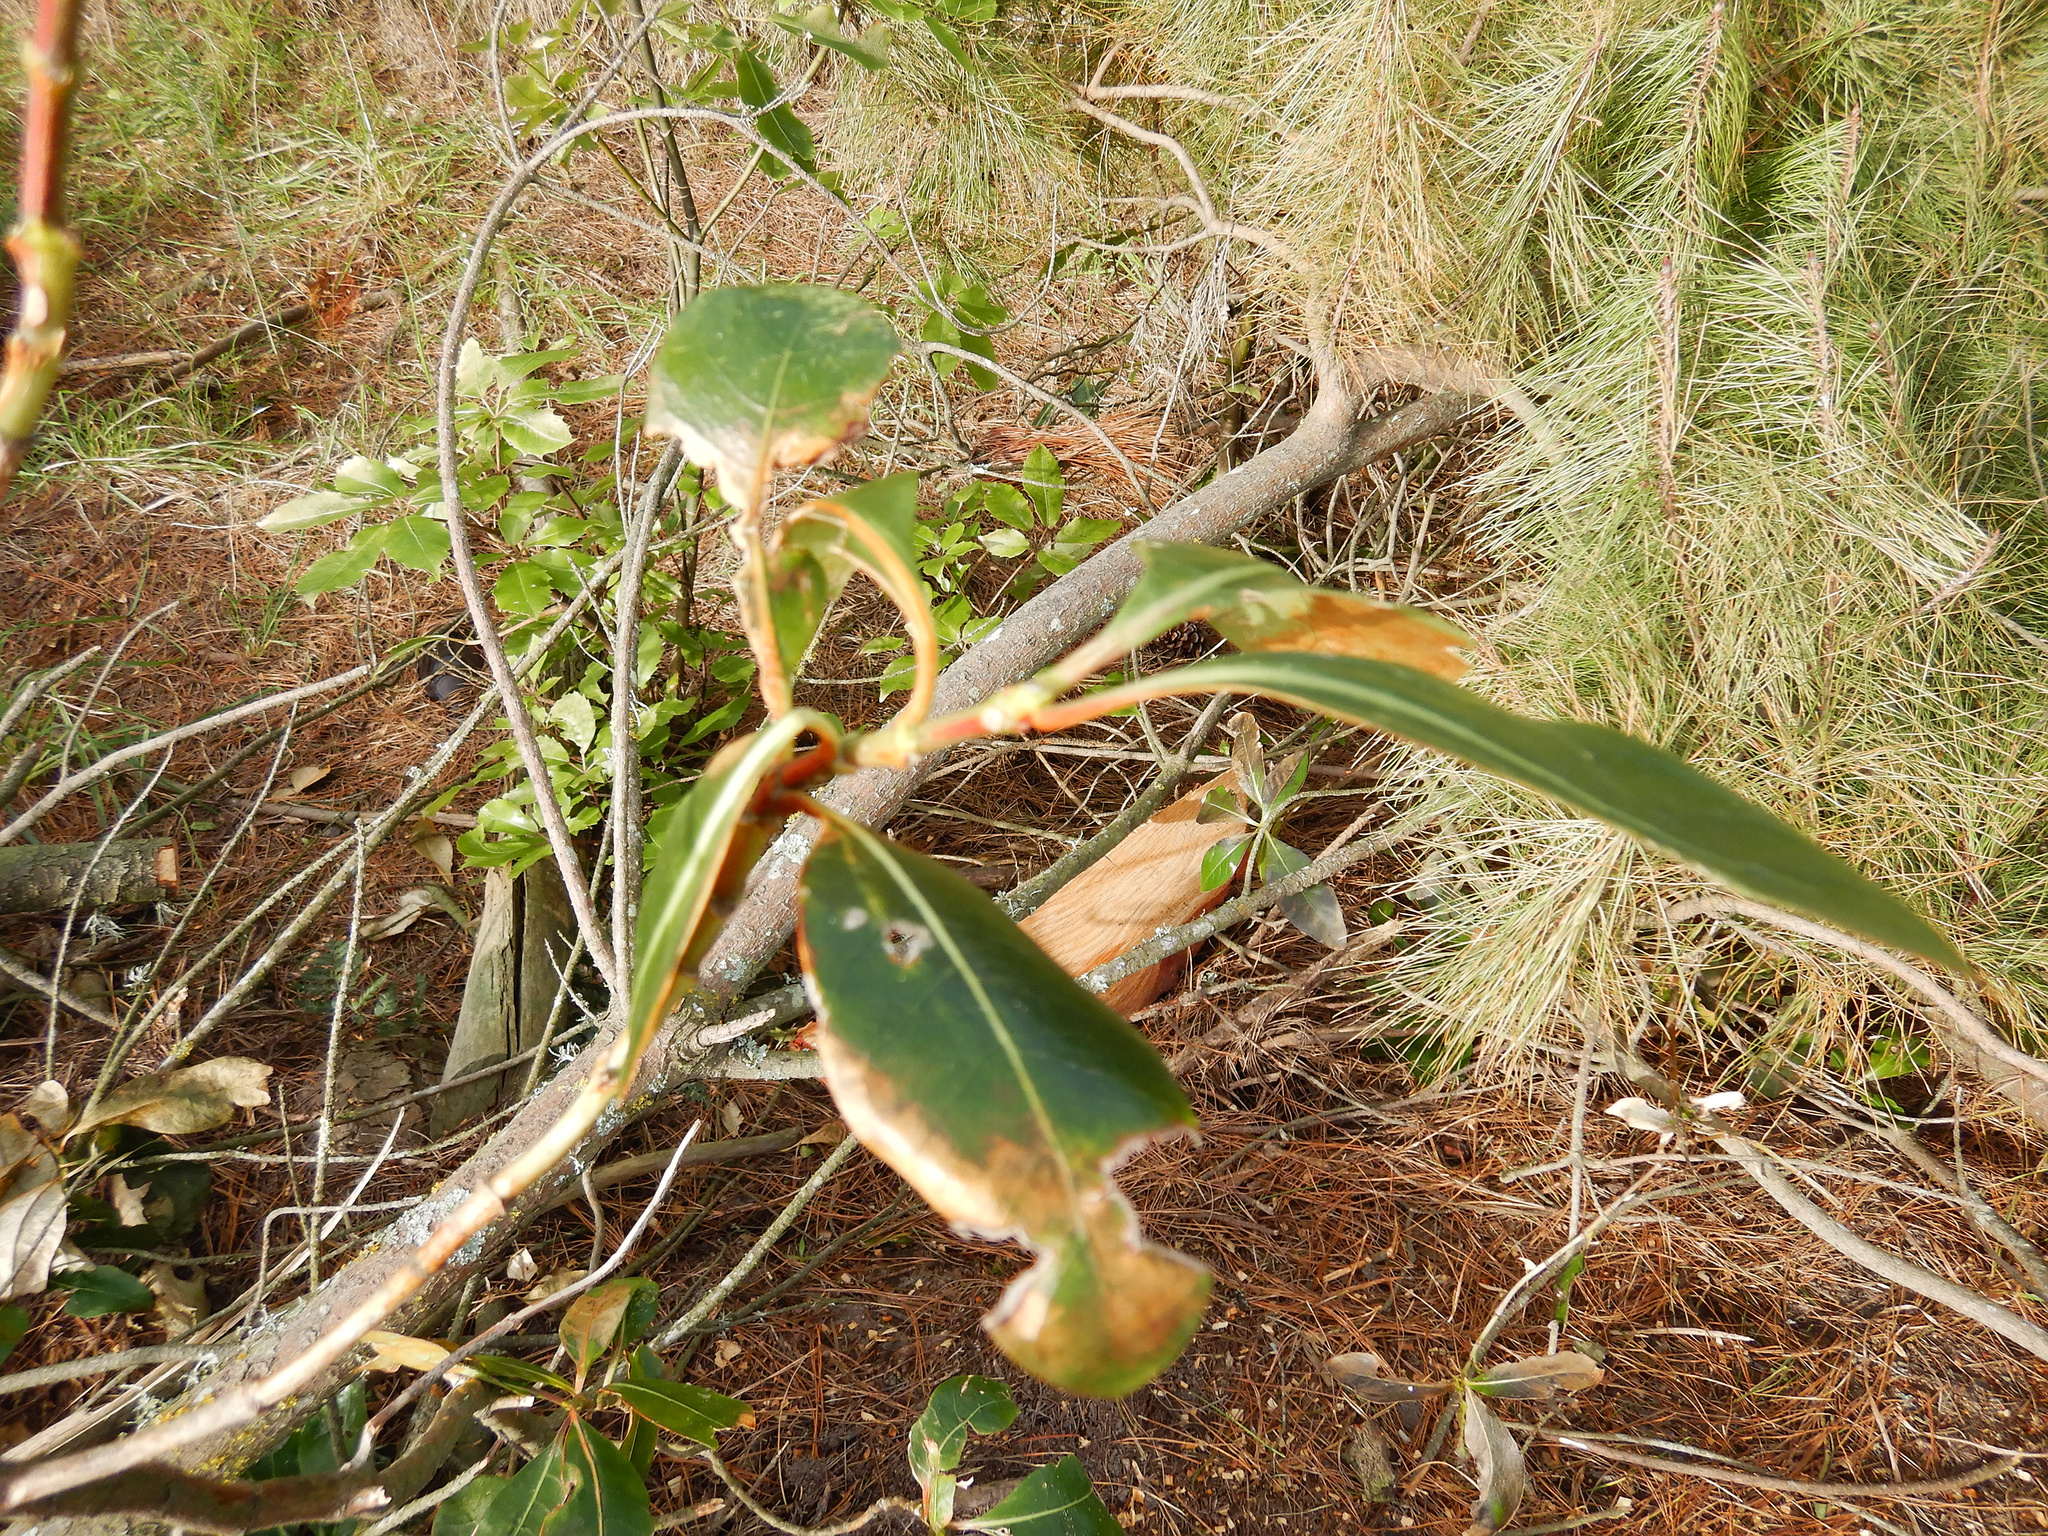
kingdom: Plantae
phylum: Tracheophyta
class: Magnoliopsida
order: Gentianales
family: Rubiaceae
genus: Coprosma
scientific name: Coprosma lucida
